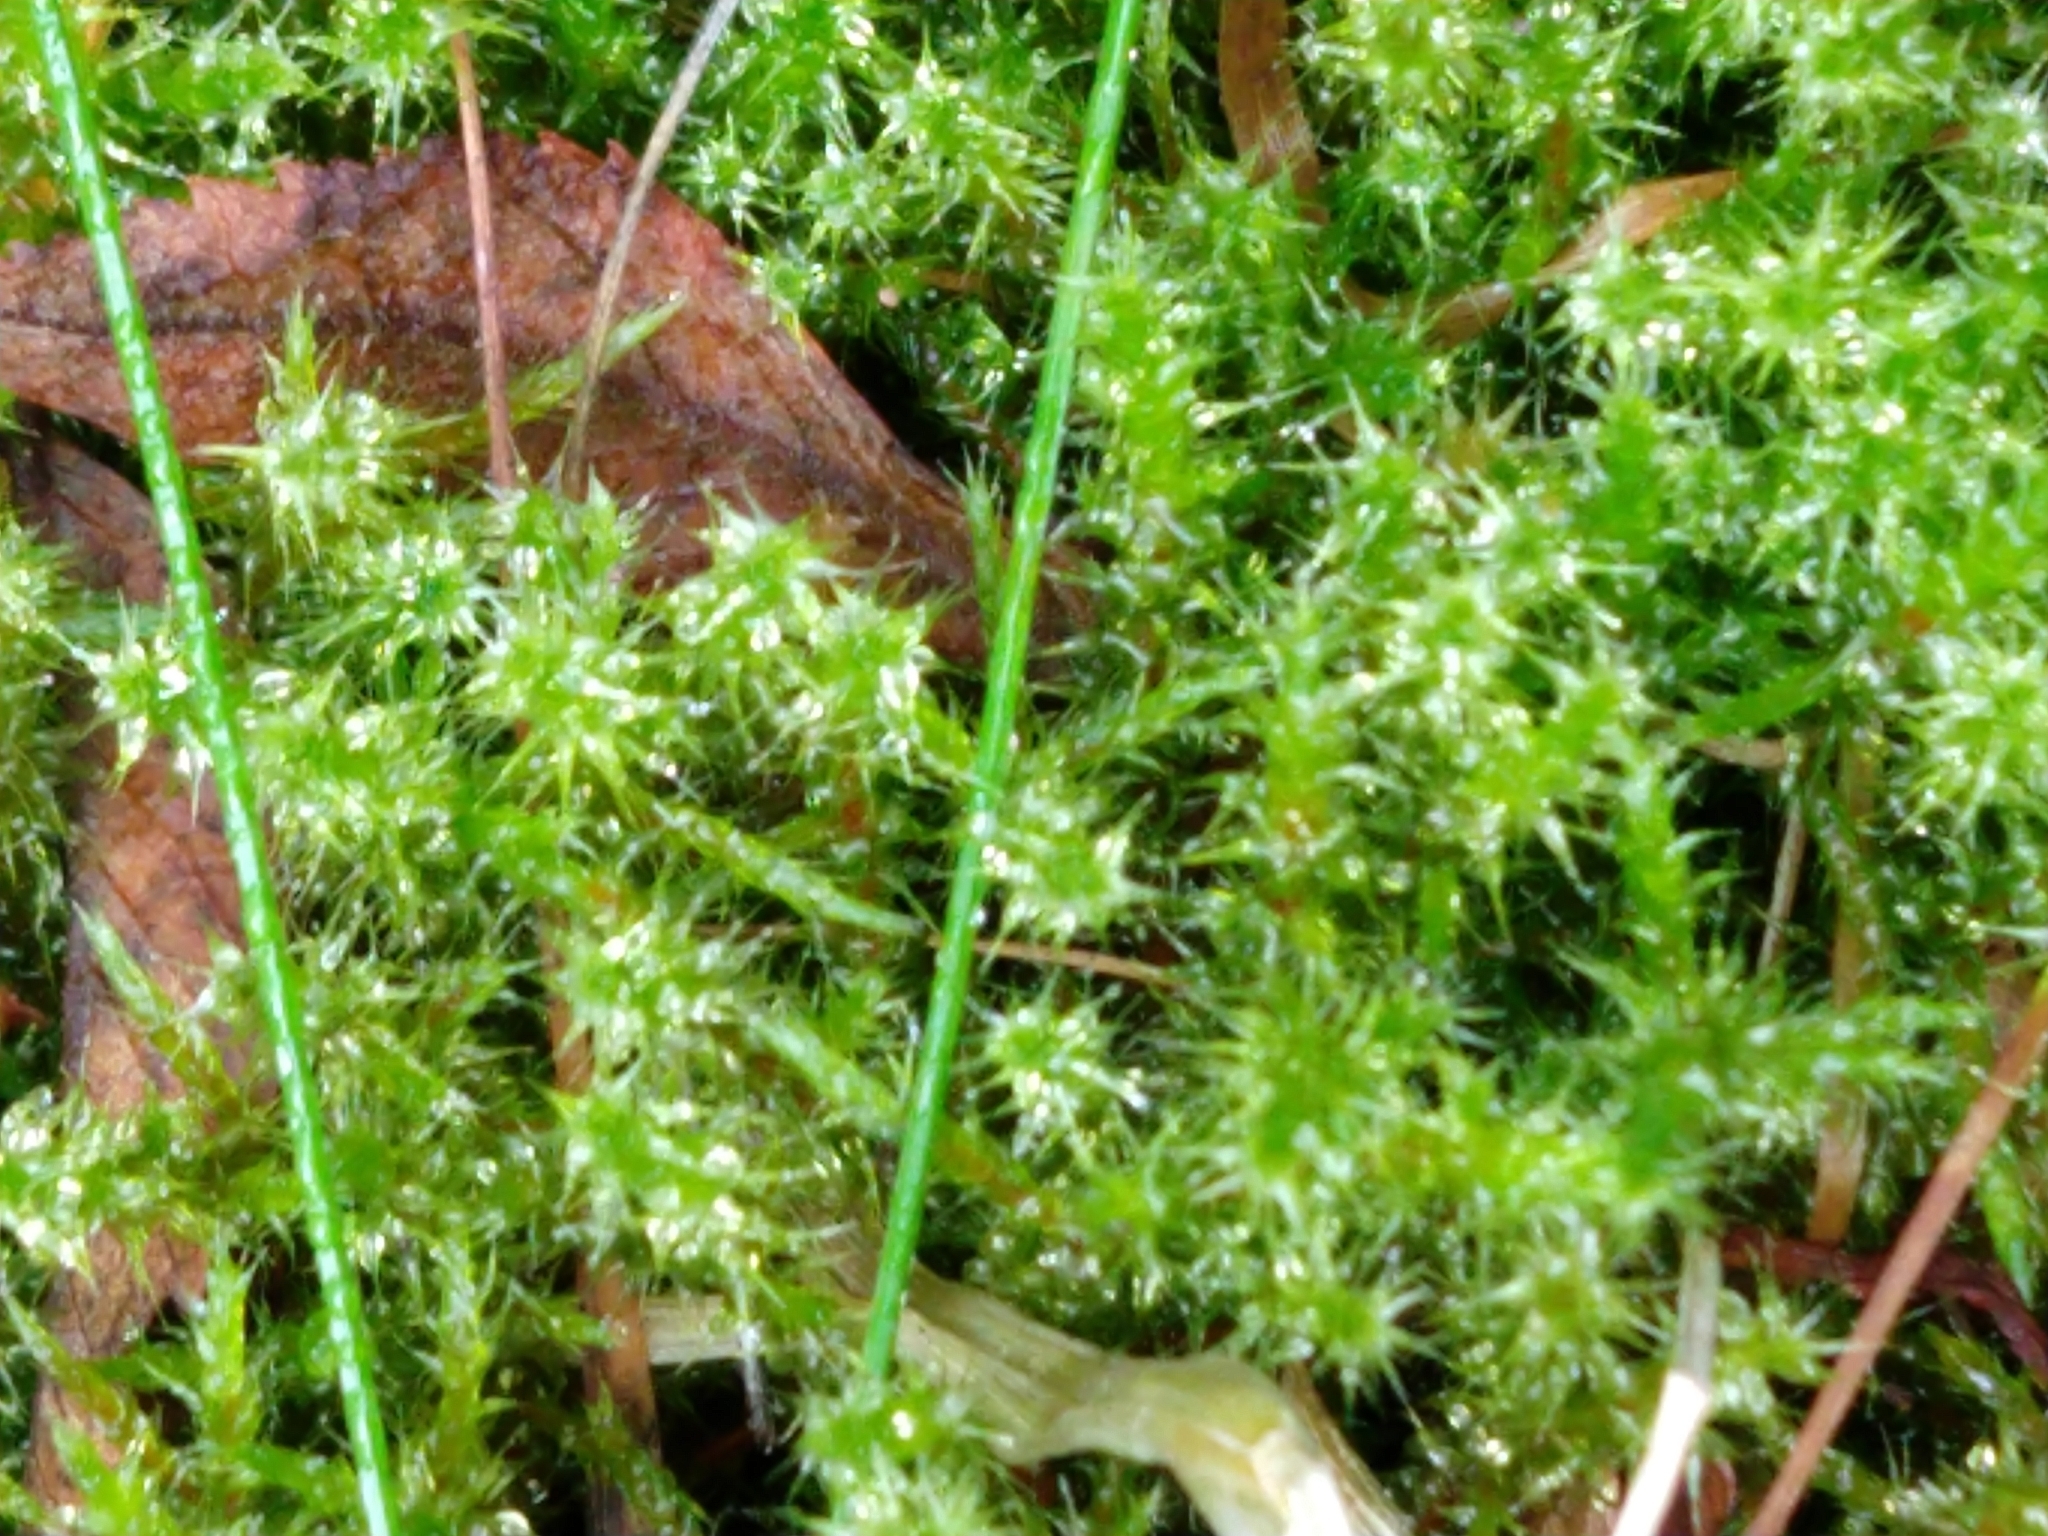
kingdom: Plantae
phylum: Bryophyta
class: Bryopsida
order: Hypnales
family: Hylocomiaceae
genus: Rhytidiadelphus
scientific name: Rhytidiadelphus squarrosus
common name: Springy turf-moss
